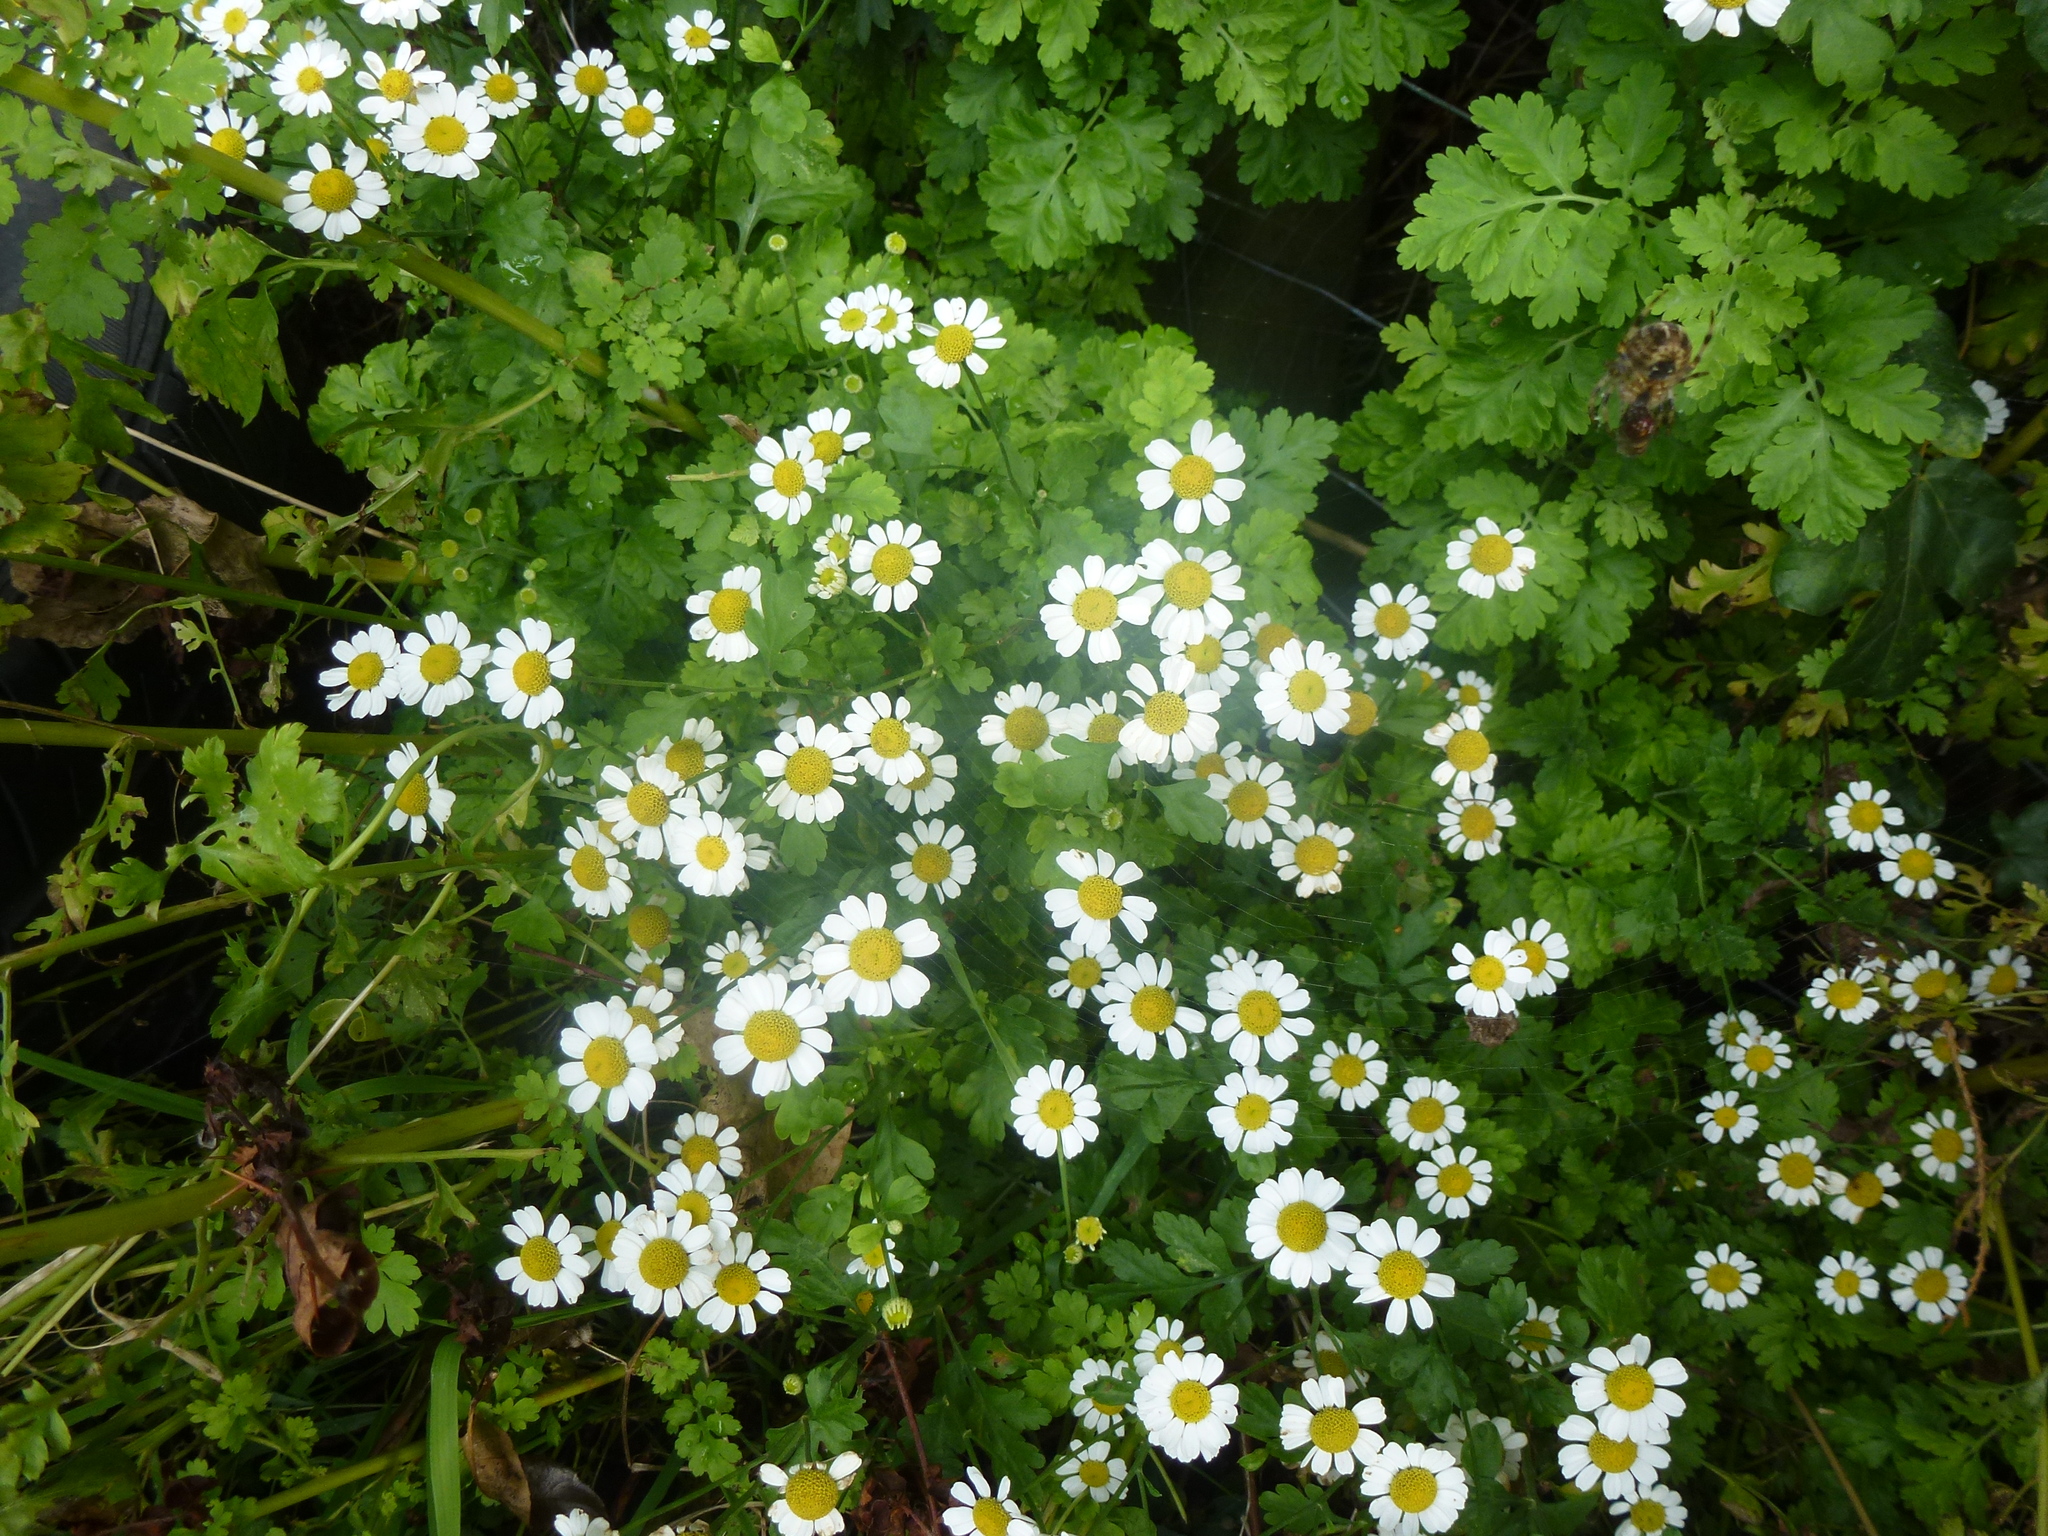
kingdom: Plantae
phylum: Tracheophyta
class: Magnoliopsida
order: Asterales
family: Asteraceae
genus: Tanacetum
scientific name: Tanacetum parthenium
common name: Feverfew
